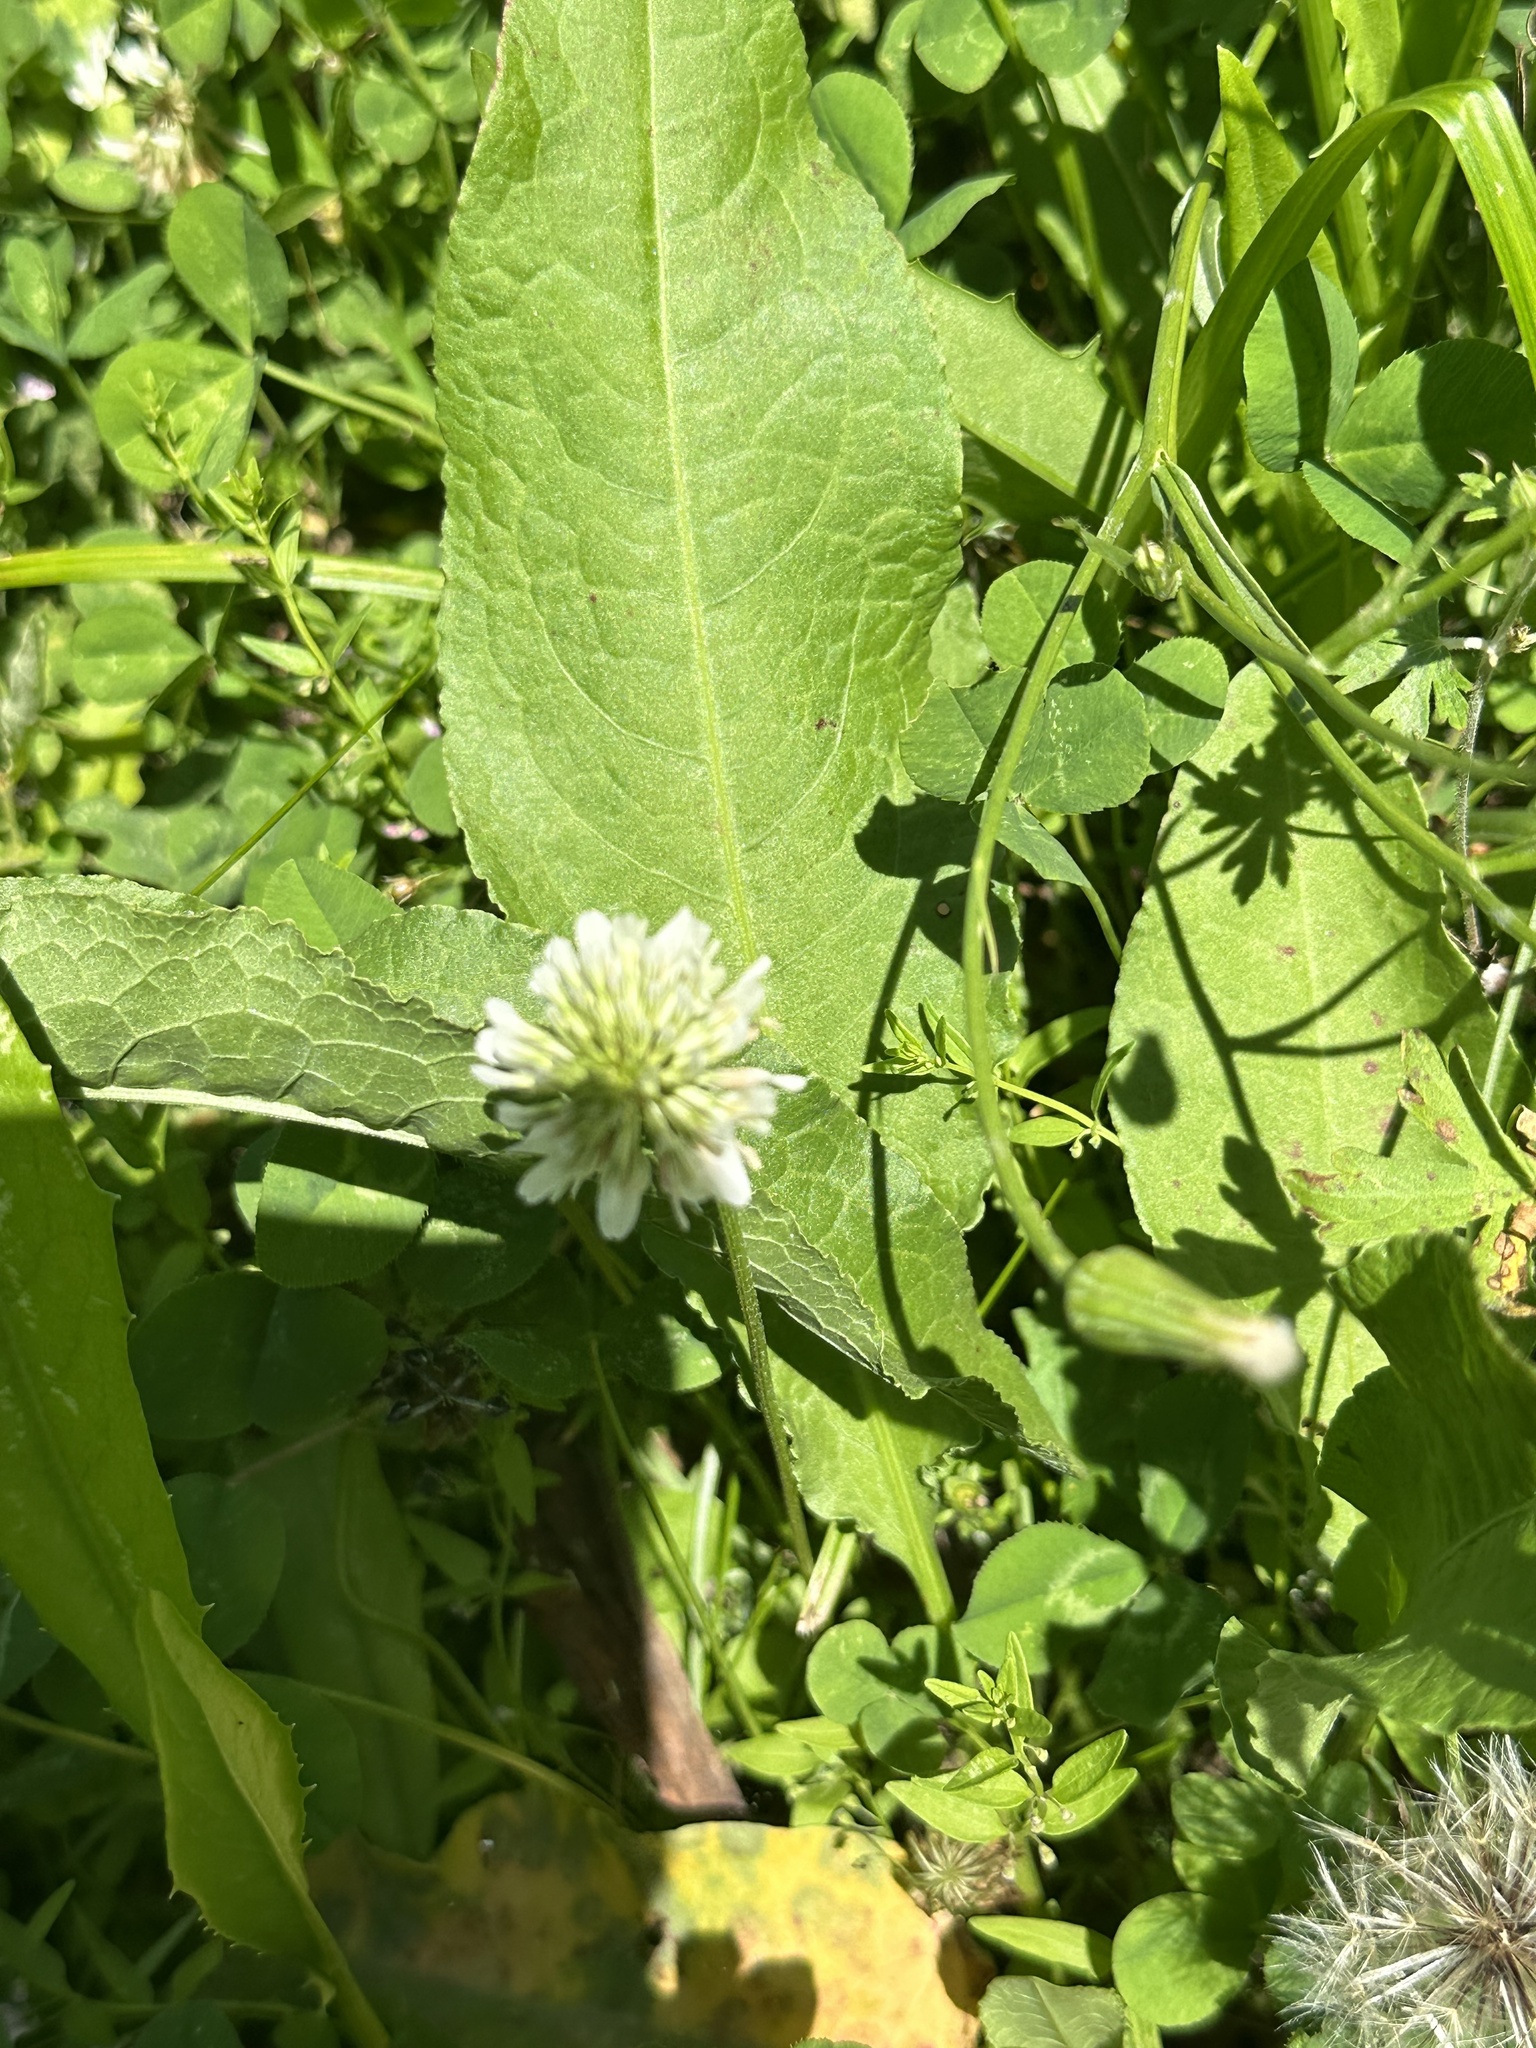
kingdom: Plantae
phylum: Tracheophyta
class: Magnoliopsida
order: Fabales
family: Fabaceae
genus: Trifolium
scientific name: Trifolium repens
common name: White clover
